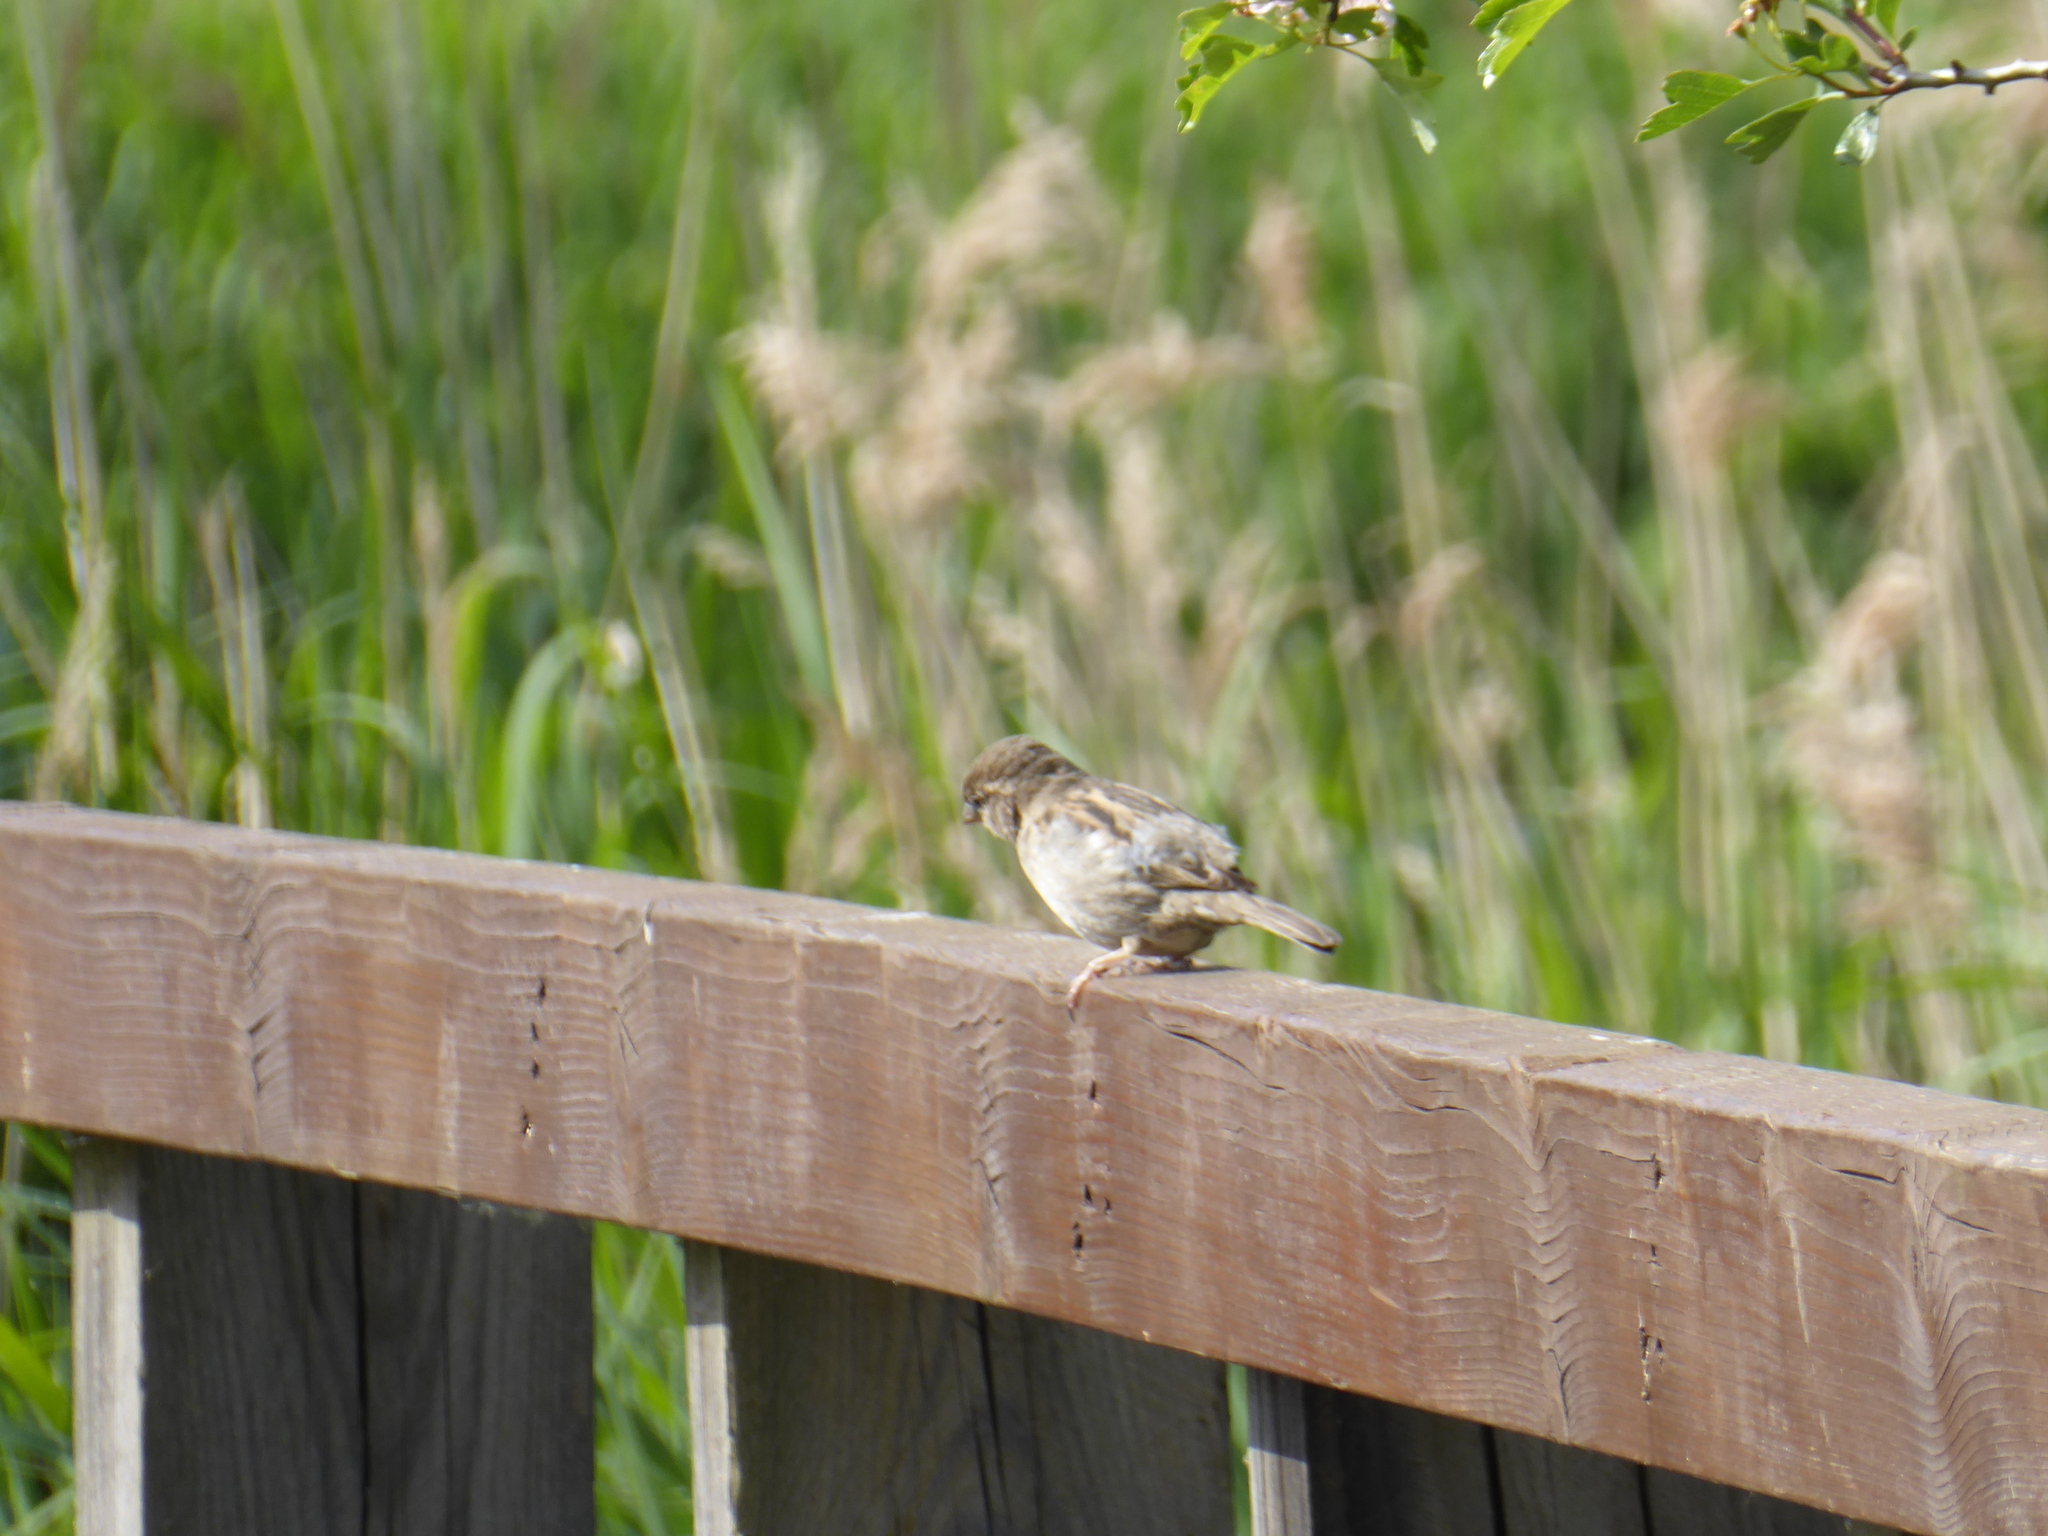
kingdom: Animalia
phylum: Chordata
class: Aves
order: Passeriformes
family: Passeridae
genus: Passer
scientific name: Passer domesticus
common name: House sparrow
